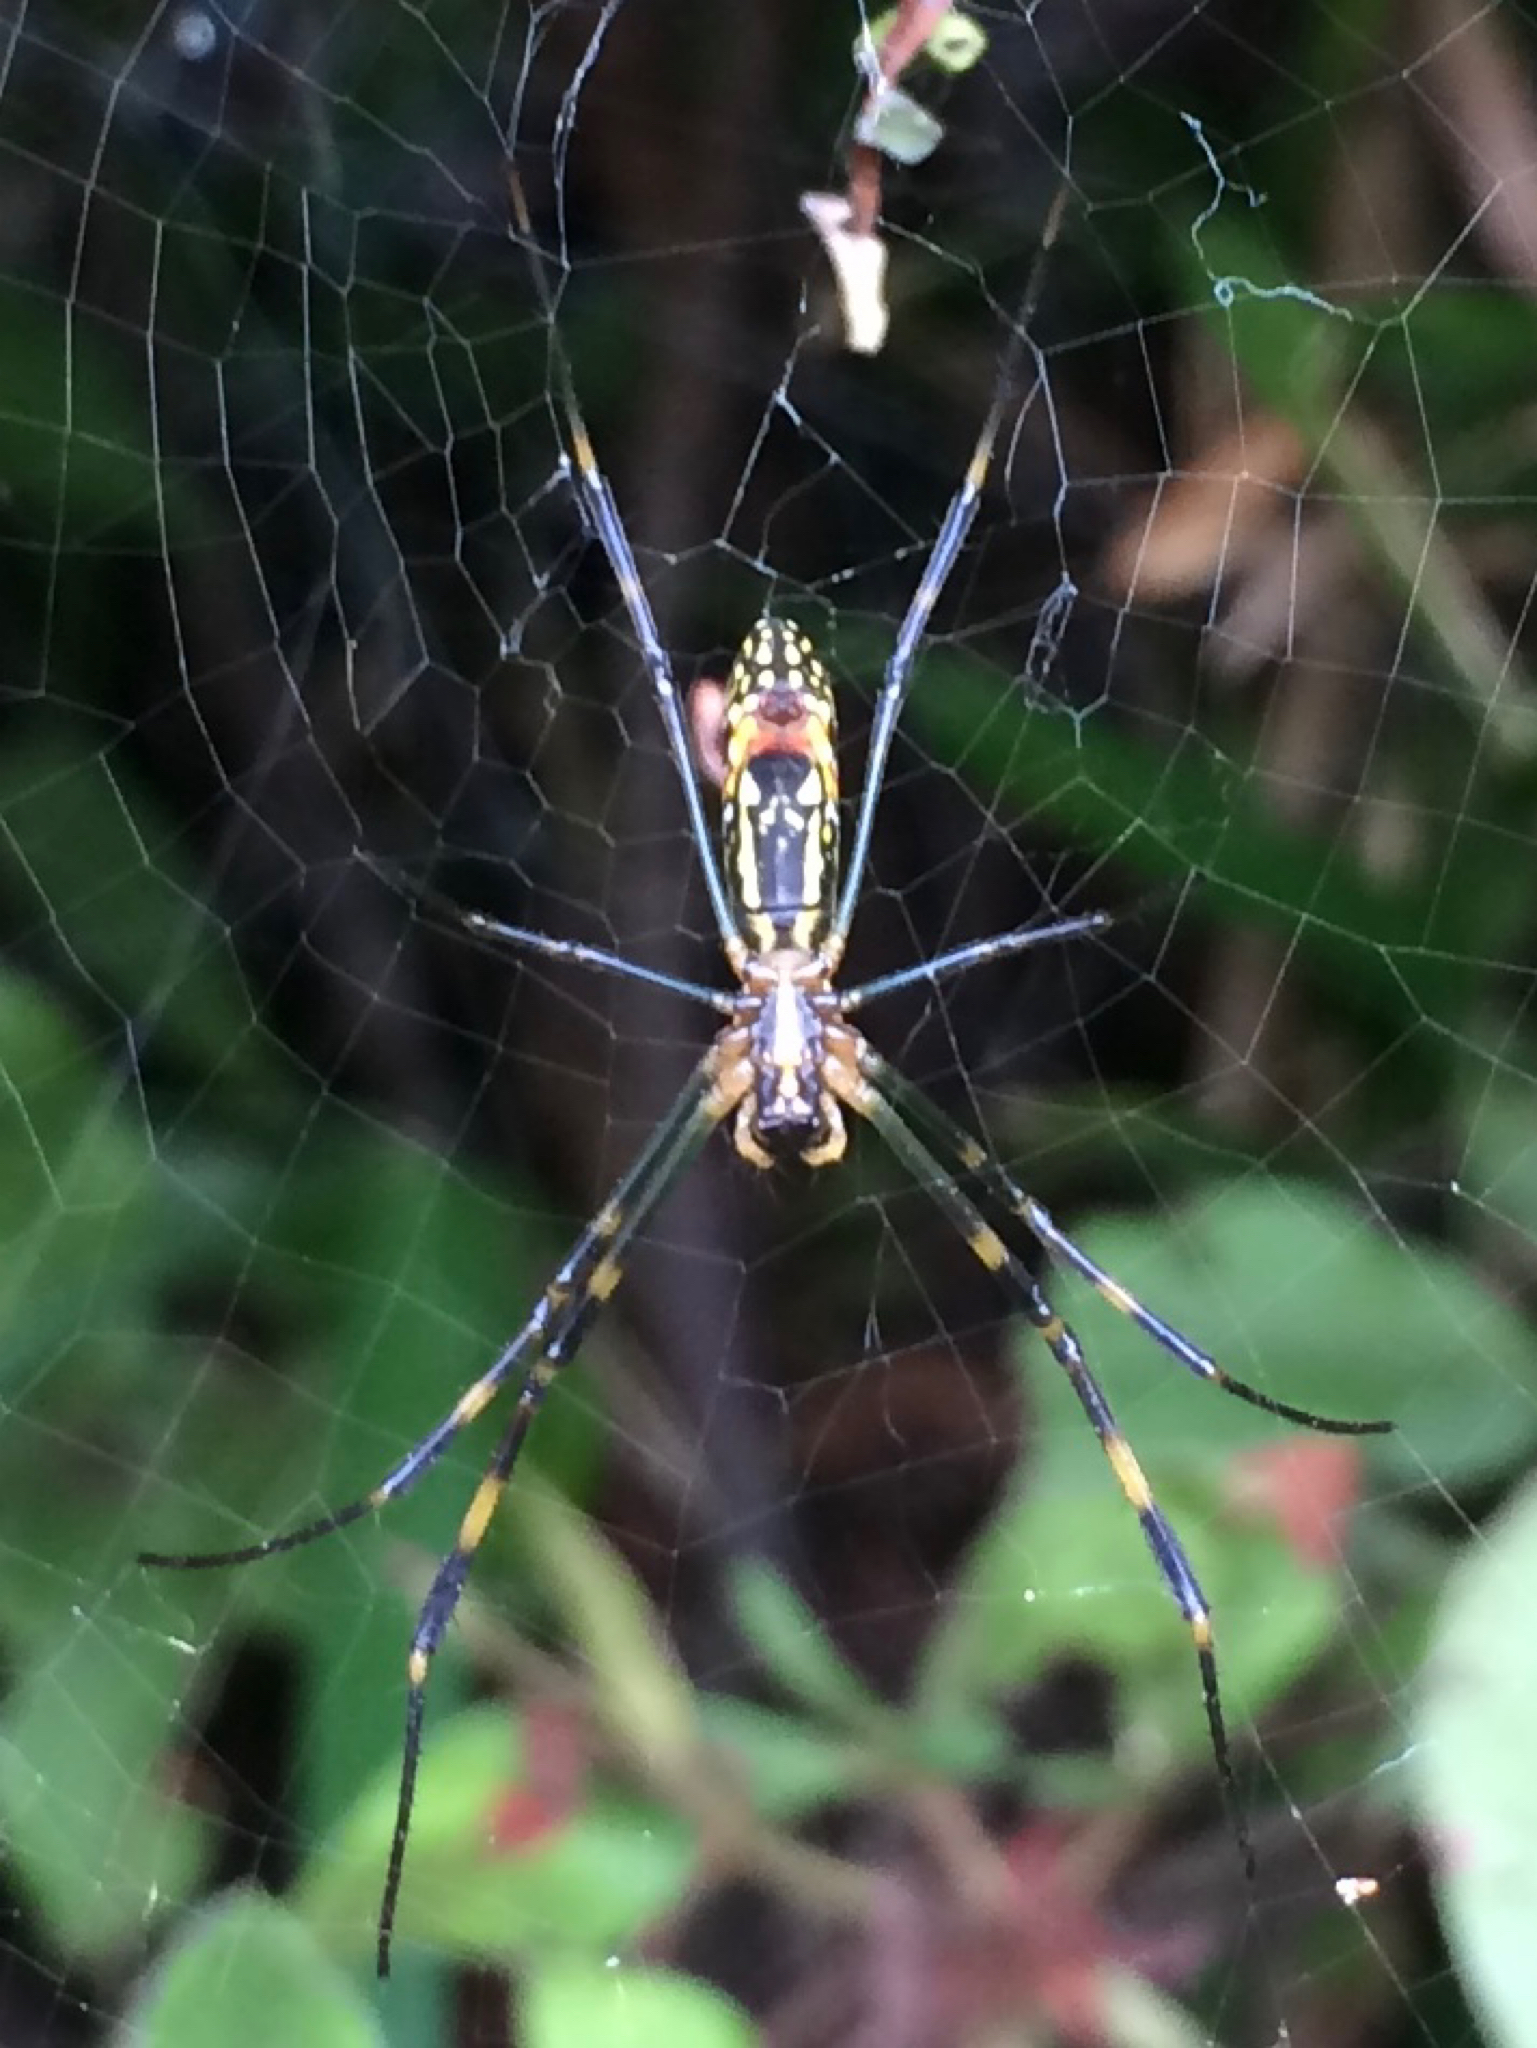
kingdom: Animalia
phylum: Arthropoda
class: Arachnida
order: Araneae
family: Araneidae
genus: Trichonephila
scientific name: Trichonephila clavata
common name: Jorō spider
